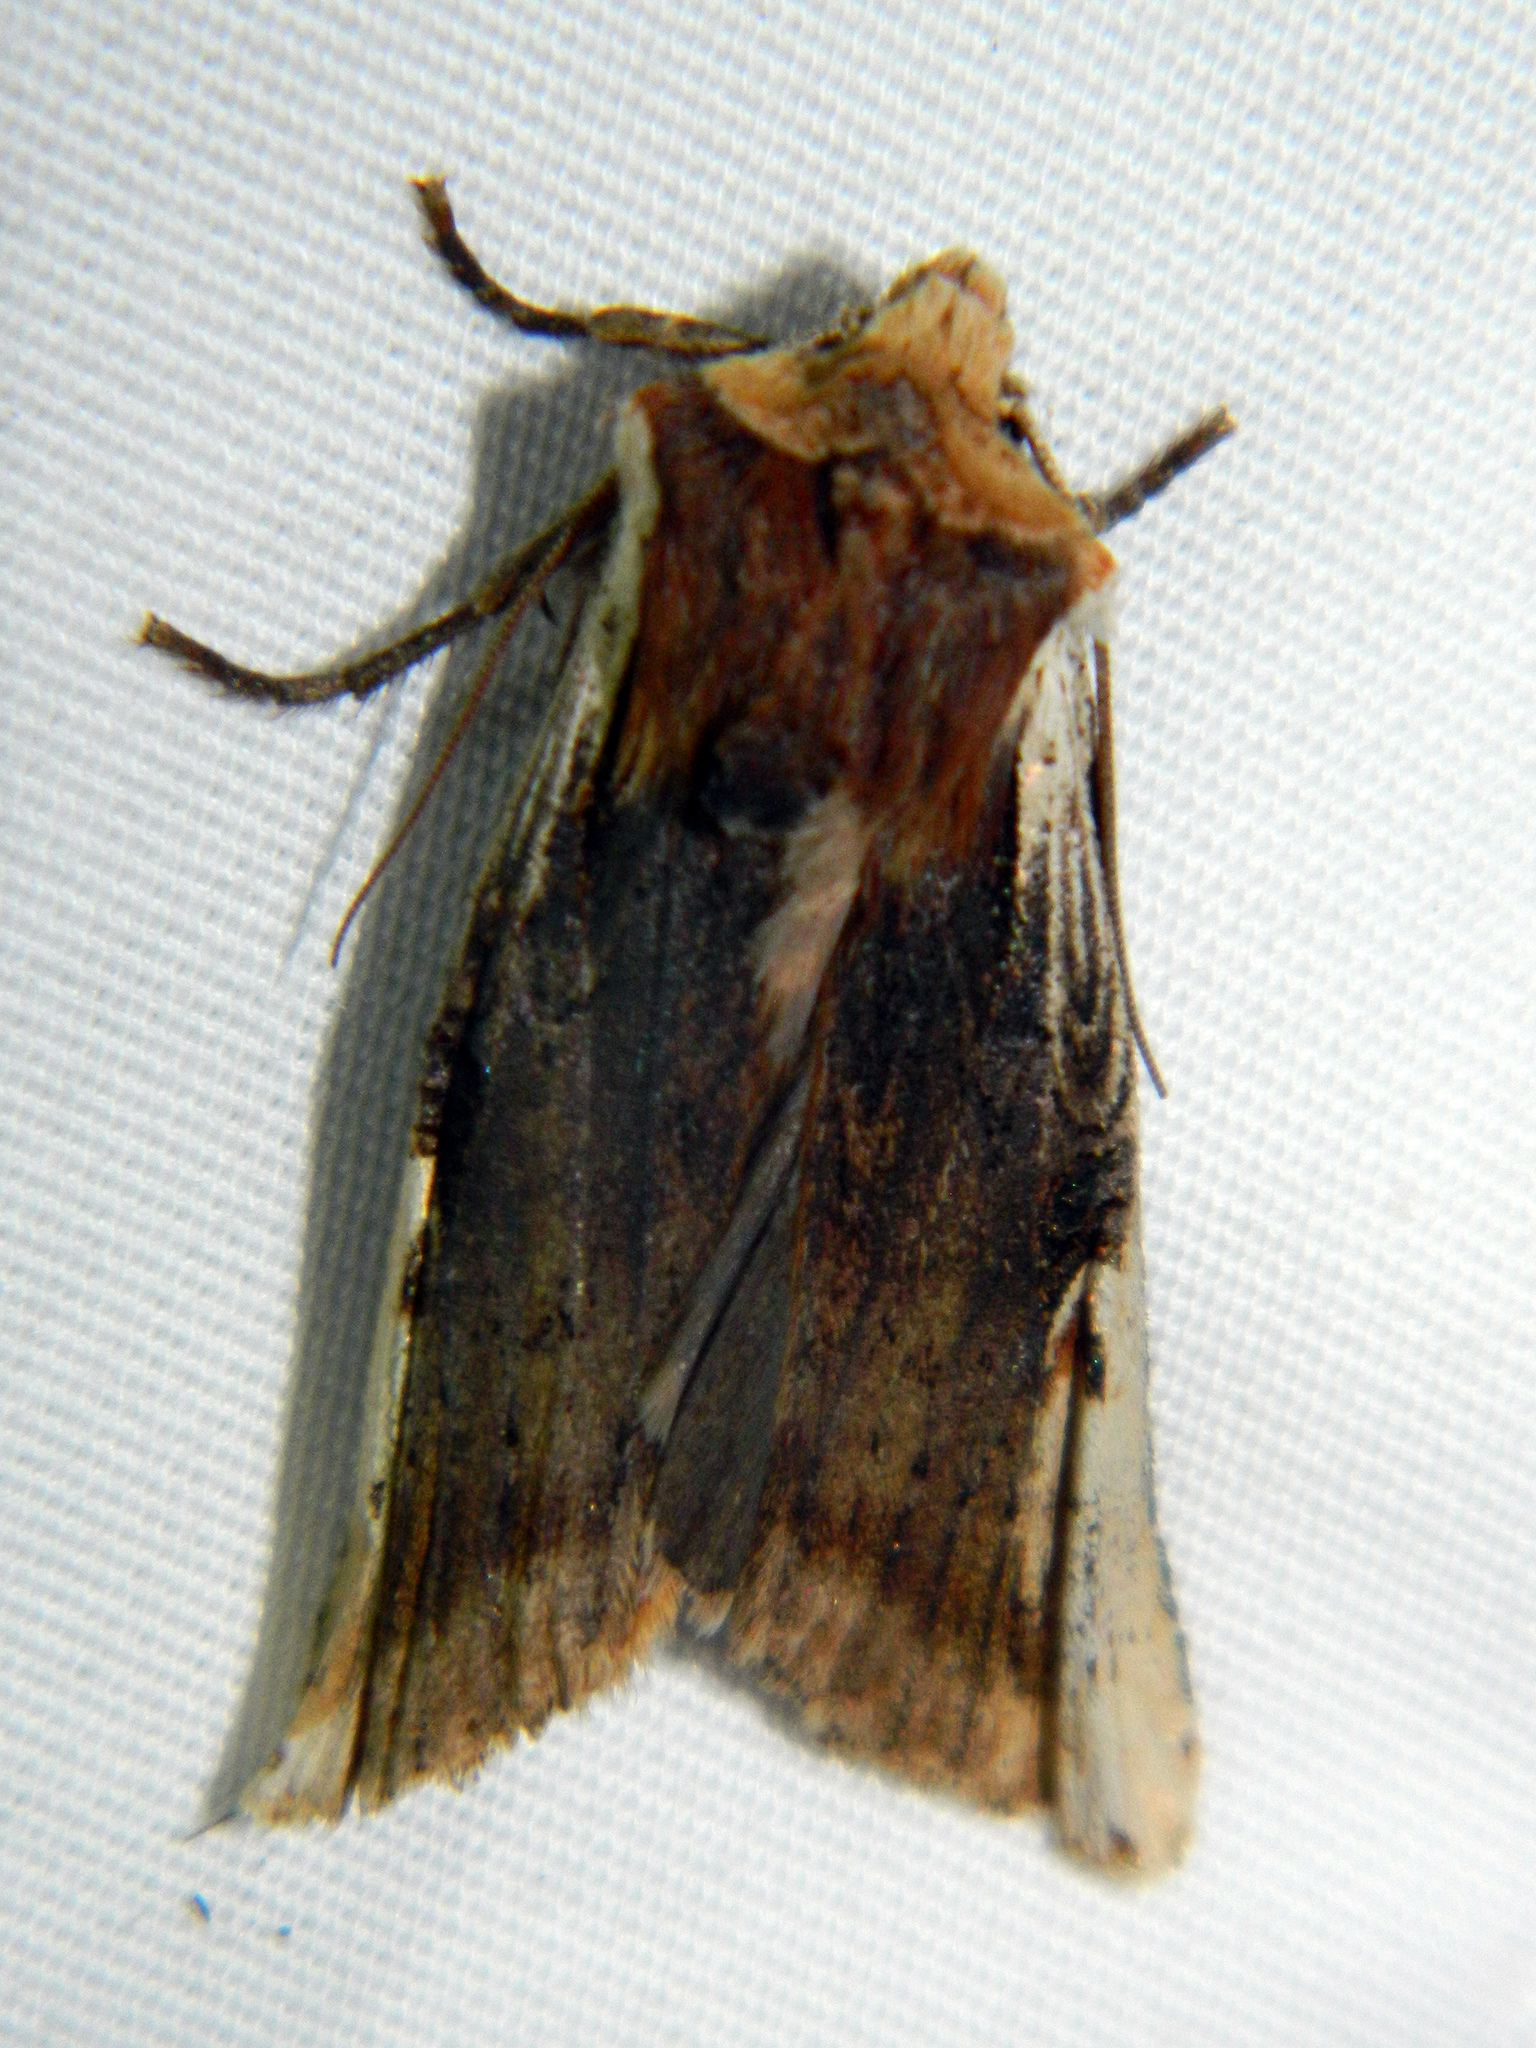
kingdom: Animalia
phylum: Arthropoda
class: Insecta
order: Lepidoptera
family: Noctuidae
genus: Xylena
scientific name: Xylena curvimacula
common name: Dot-and-dash swordgrass moth
